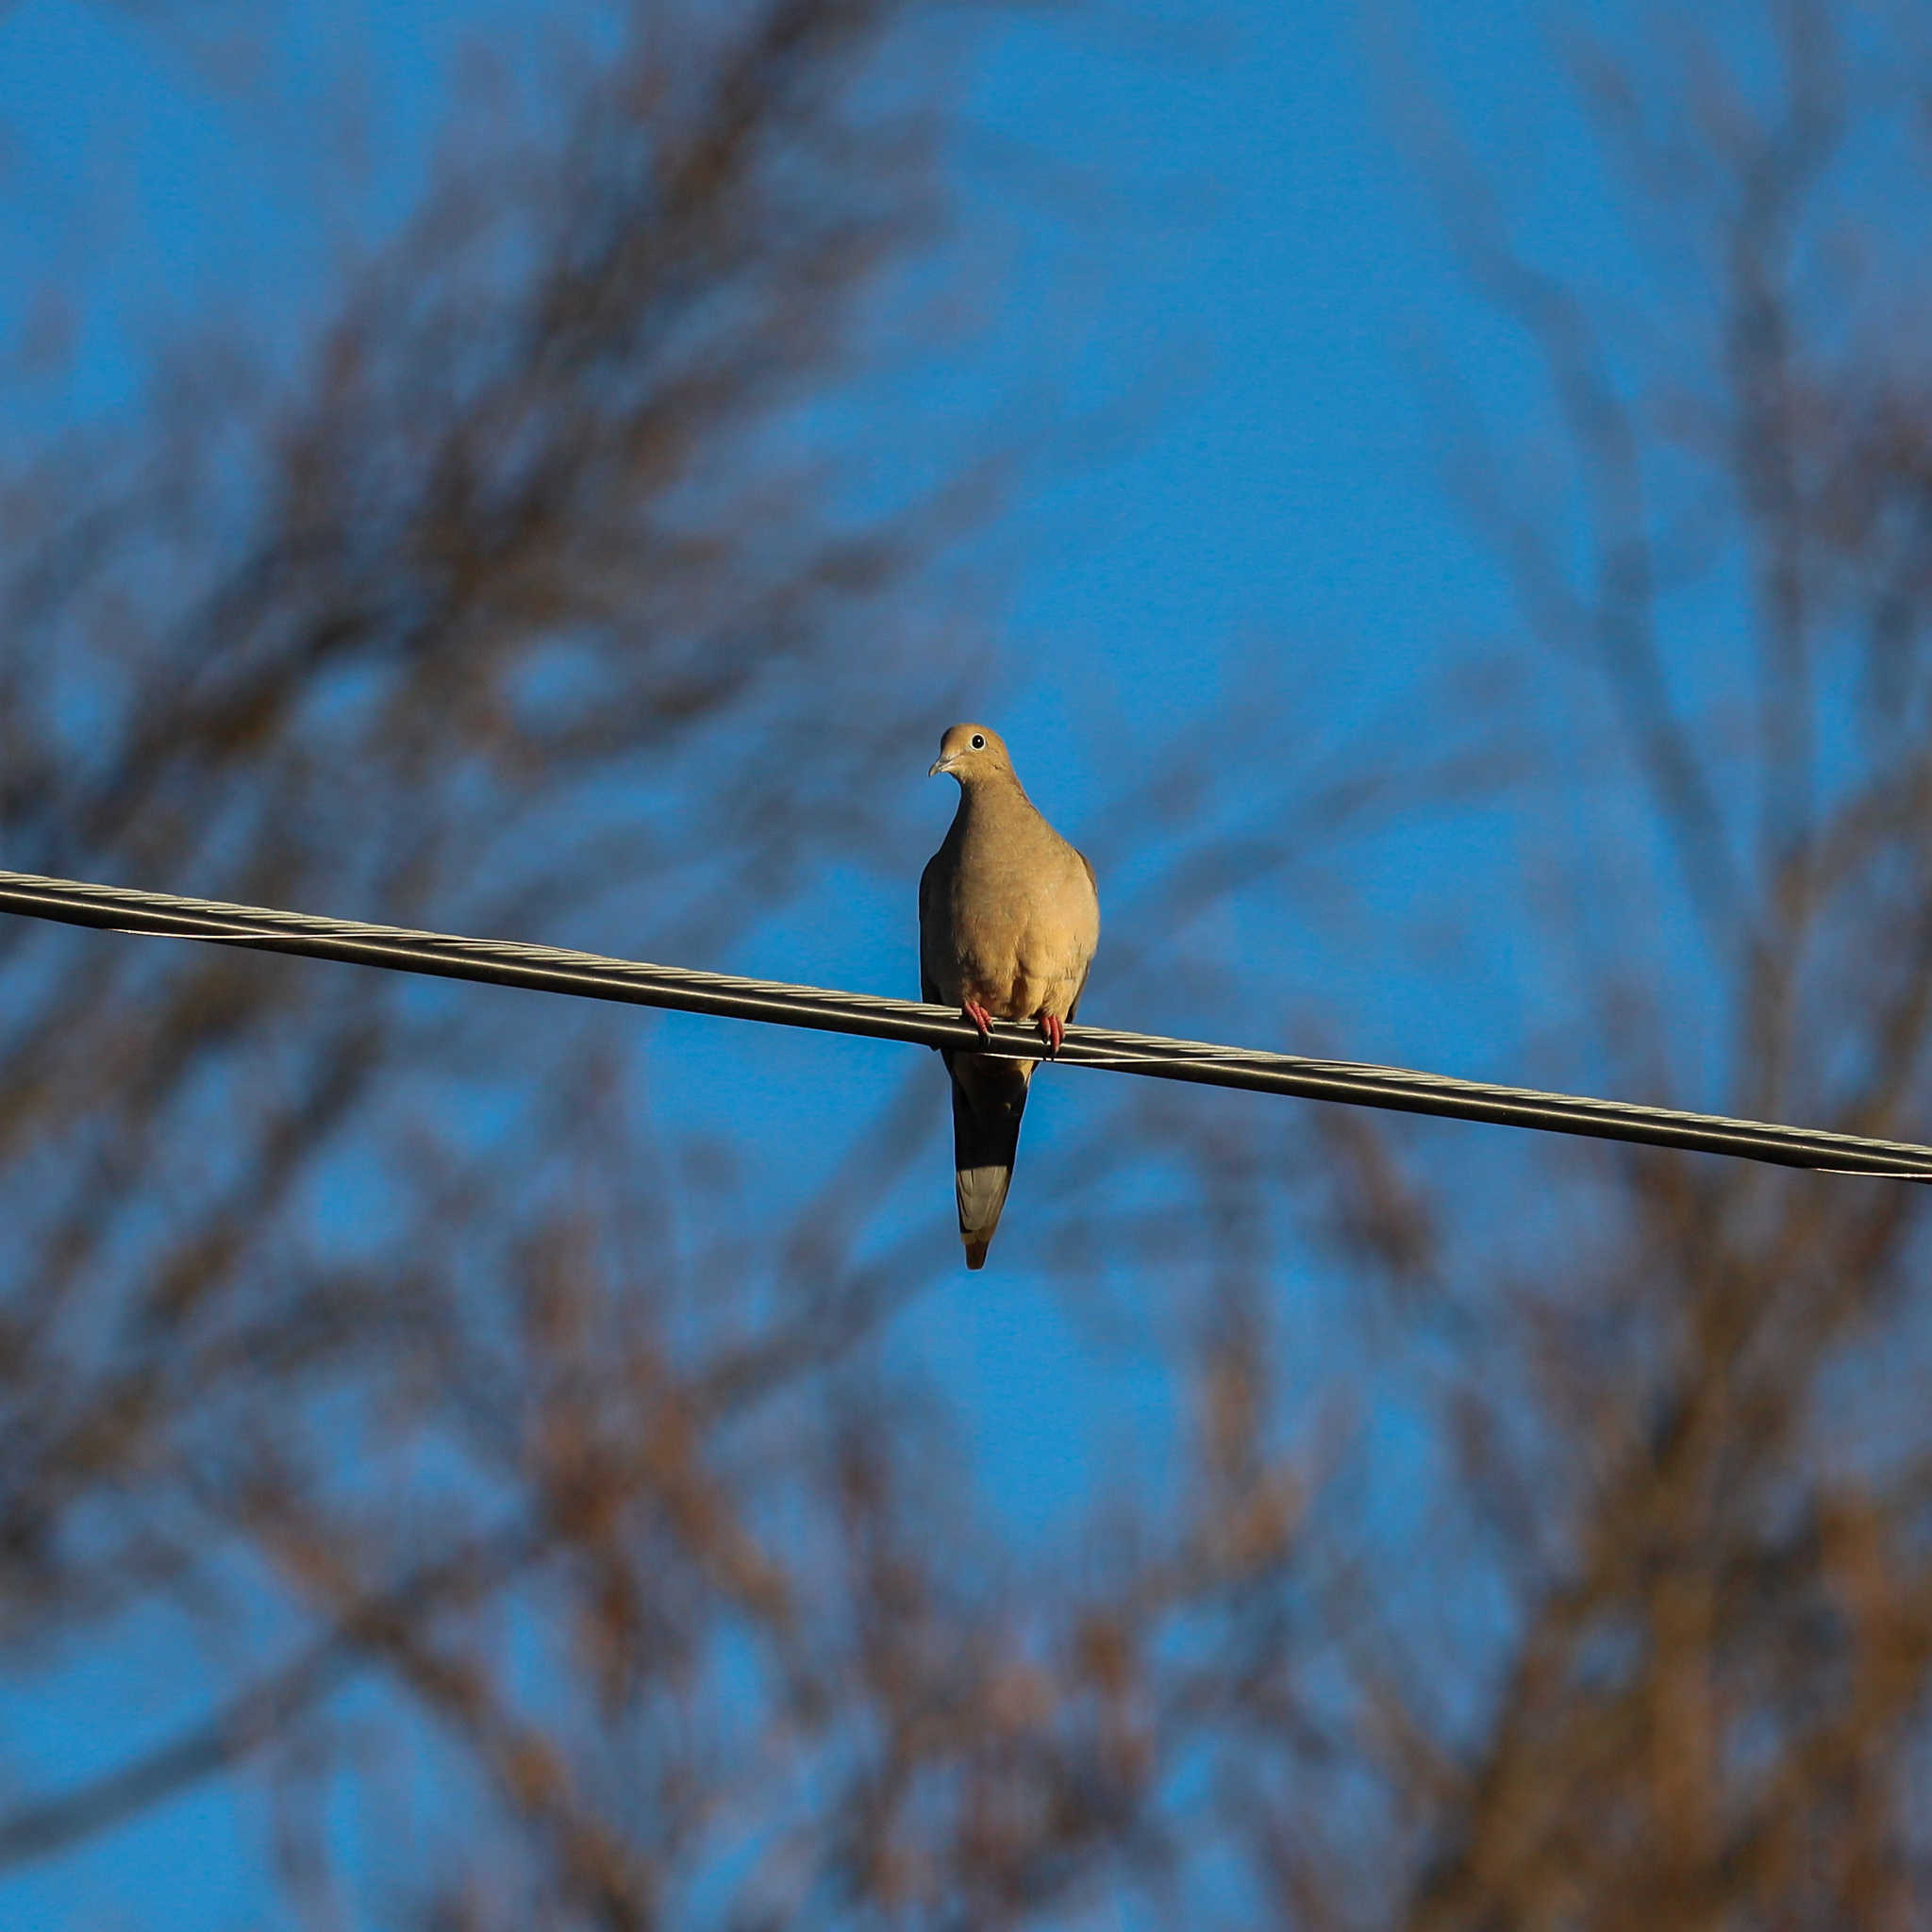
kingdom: Animalia
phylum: Chordata
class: Aves
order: Columbiformes
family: Columbidae
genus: Zenaida
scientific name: Zenaida macroura
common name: Mourning dove
